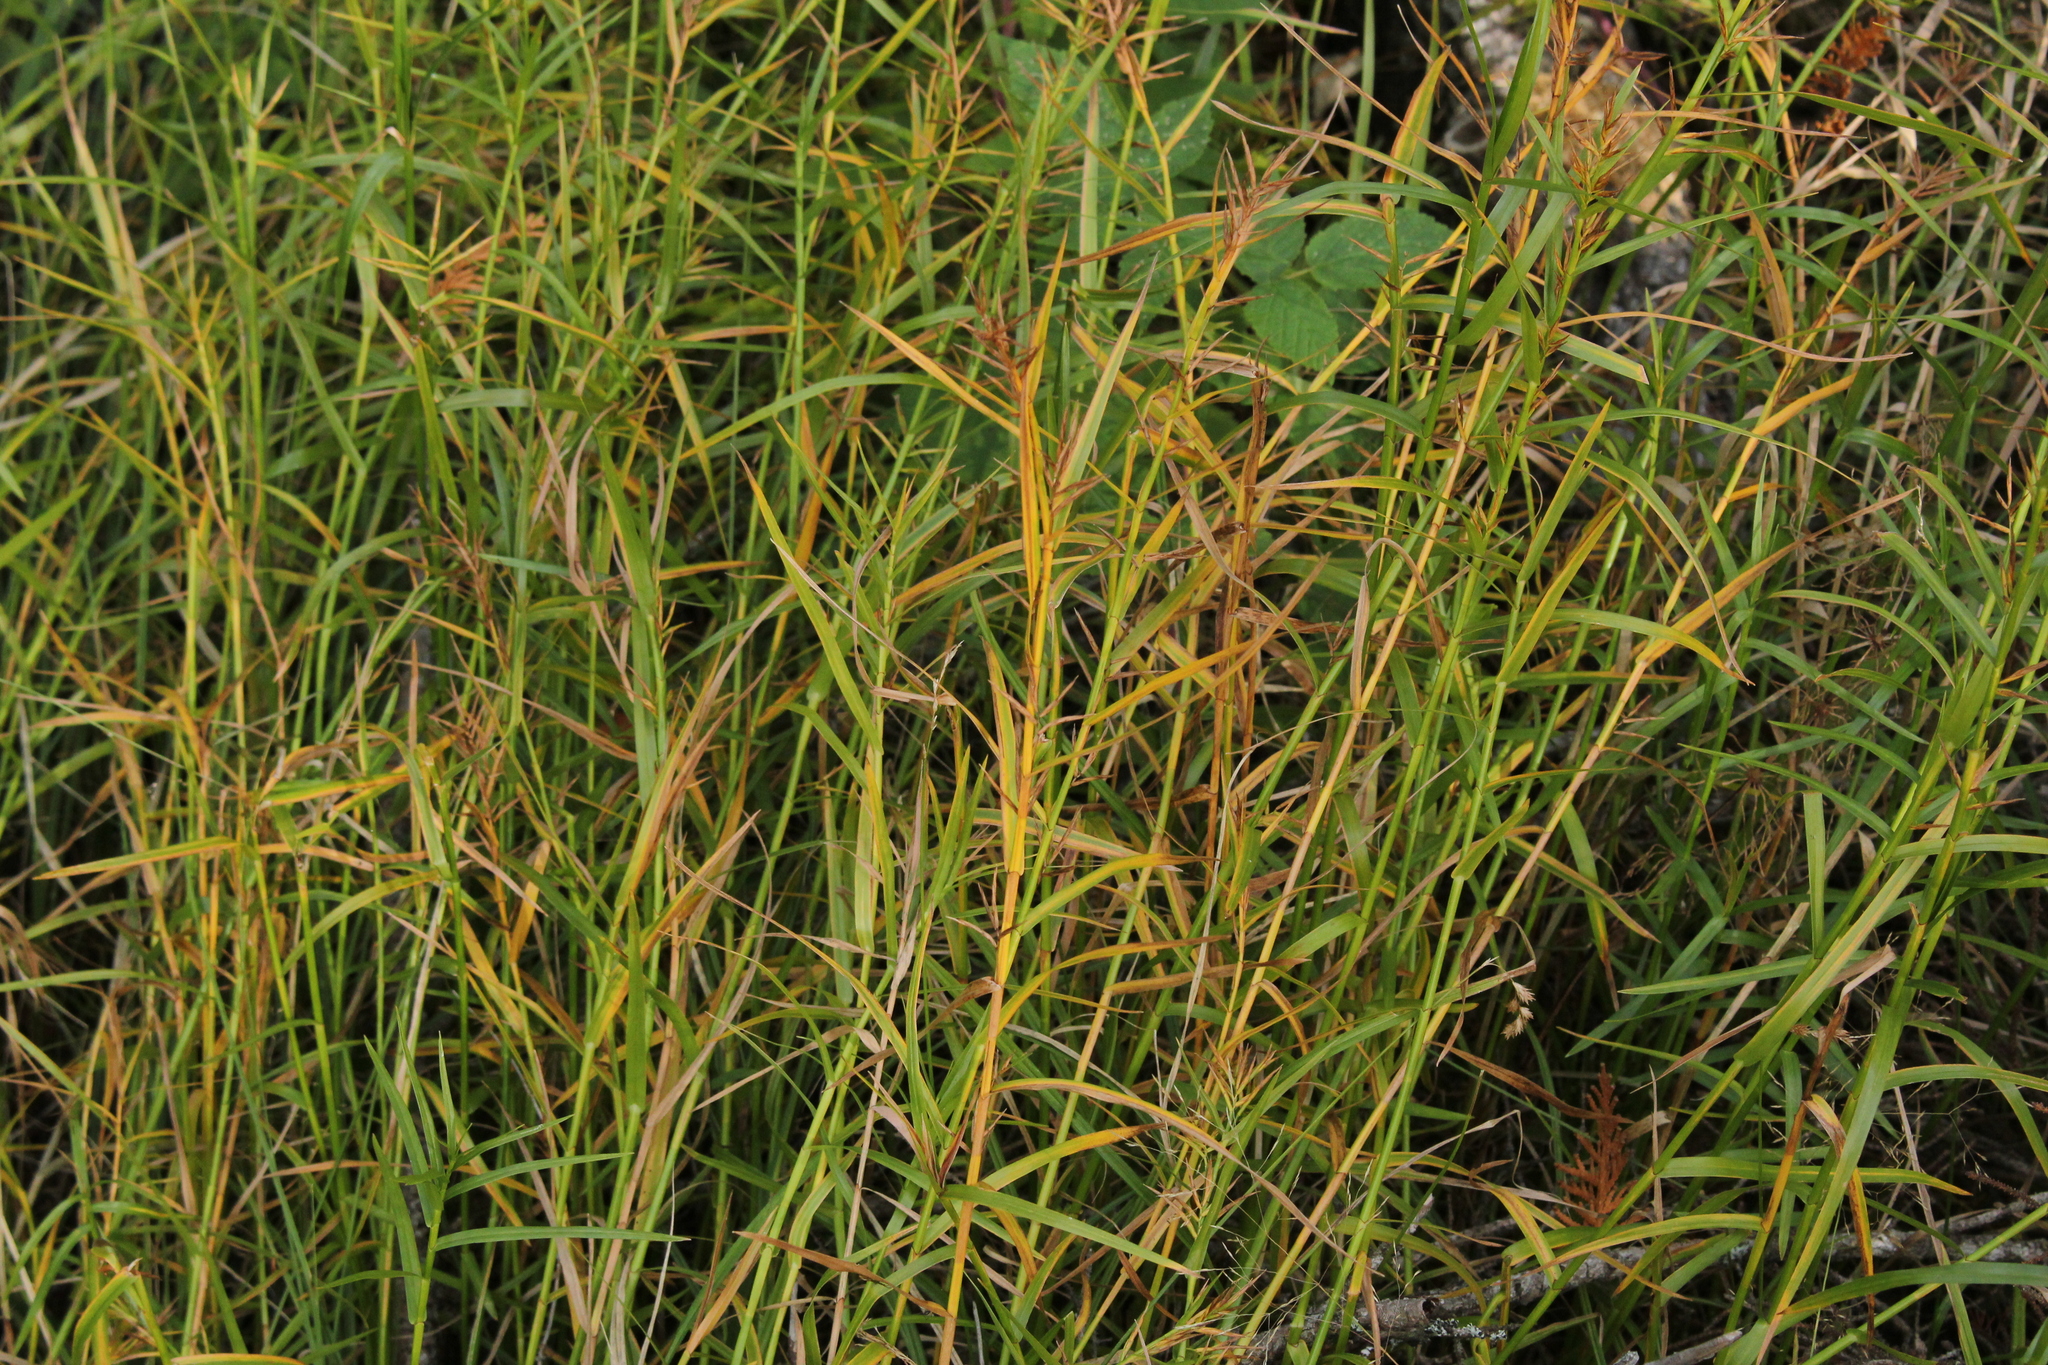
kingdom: Plantae
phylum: Tracheophyta
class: Liliopsida
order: Poales
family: Cyperaceae
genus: Dulichium
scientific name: Dulichium arundinaceum
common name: Three-way sedge
